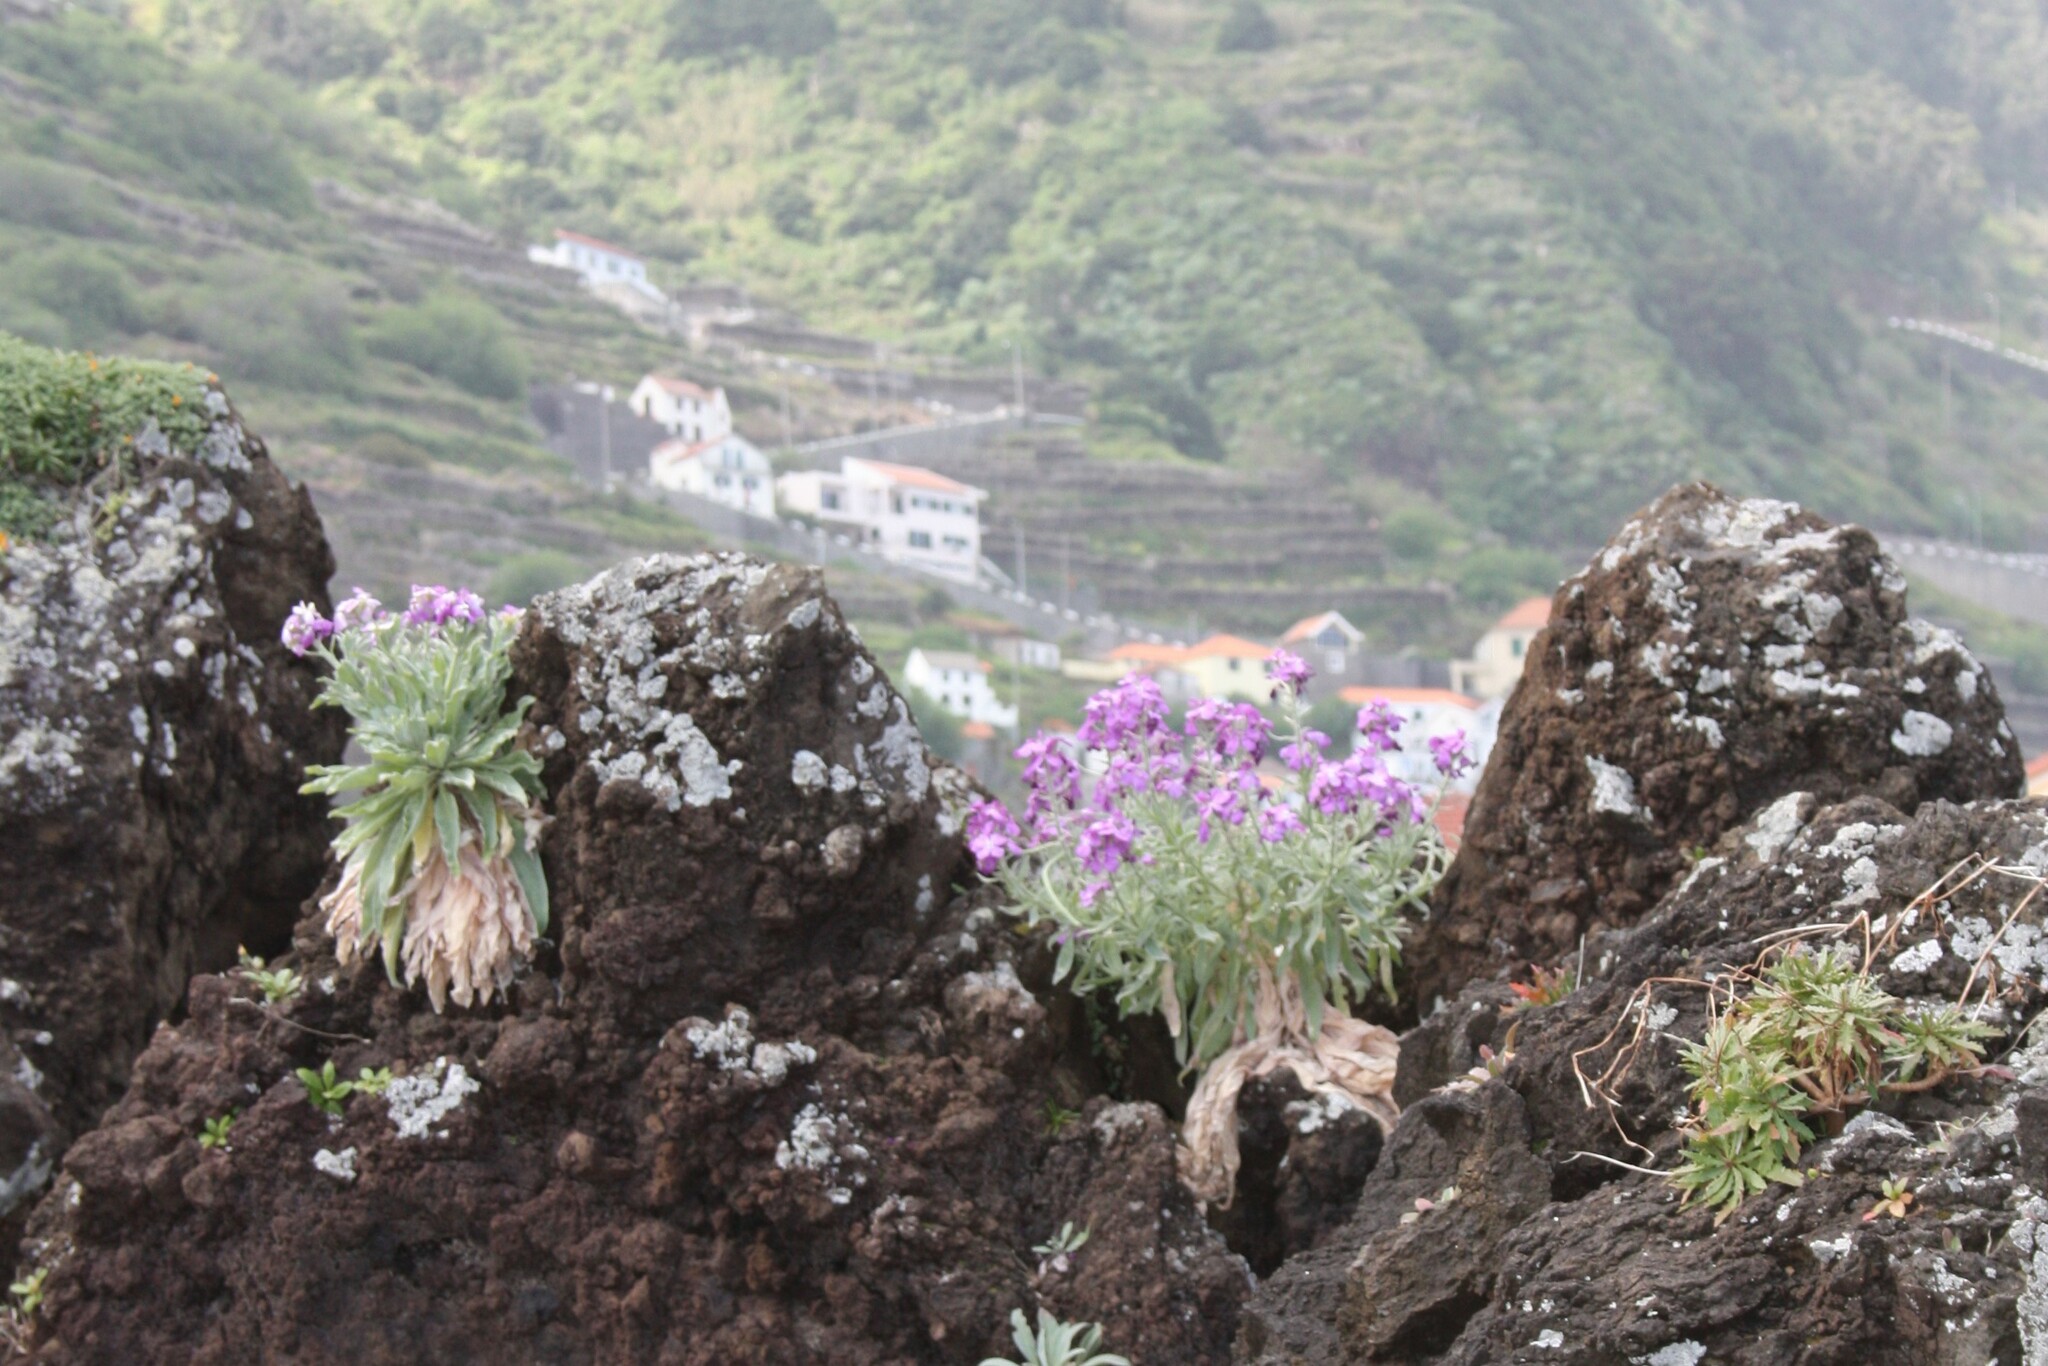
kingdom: Plantae
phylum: Tracheophyta
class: Magnoliopsida
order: Brassicales
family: Brassicaceae
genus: Matthiola
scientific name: Matthiola maderensis
